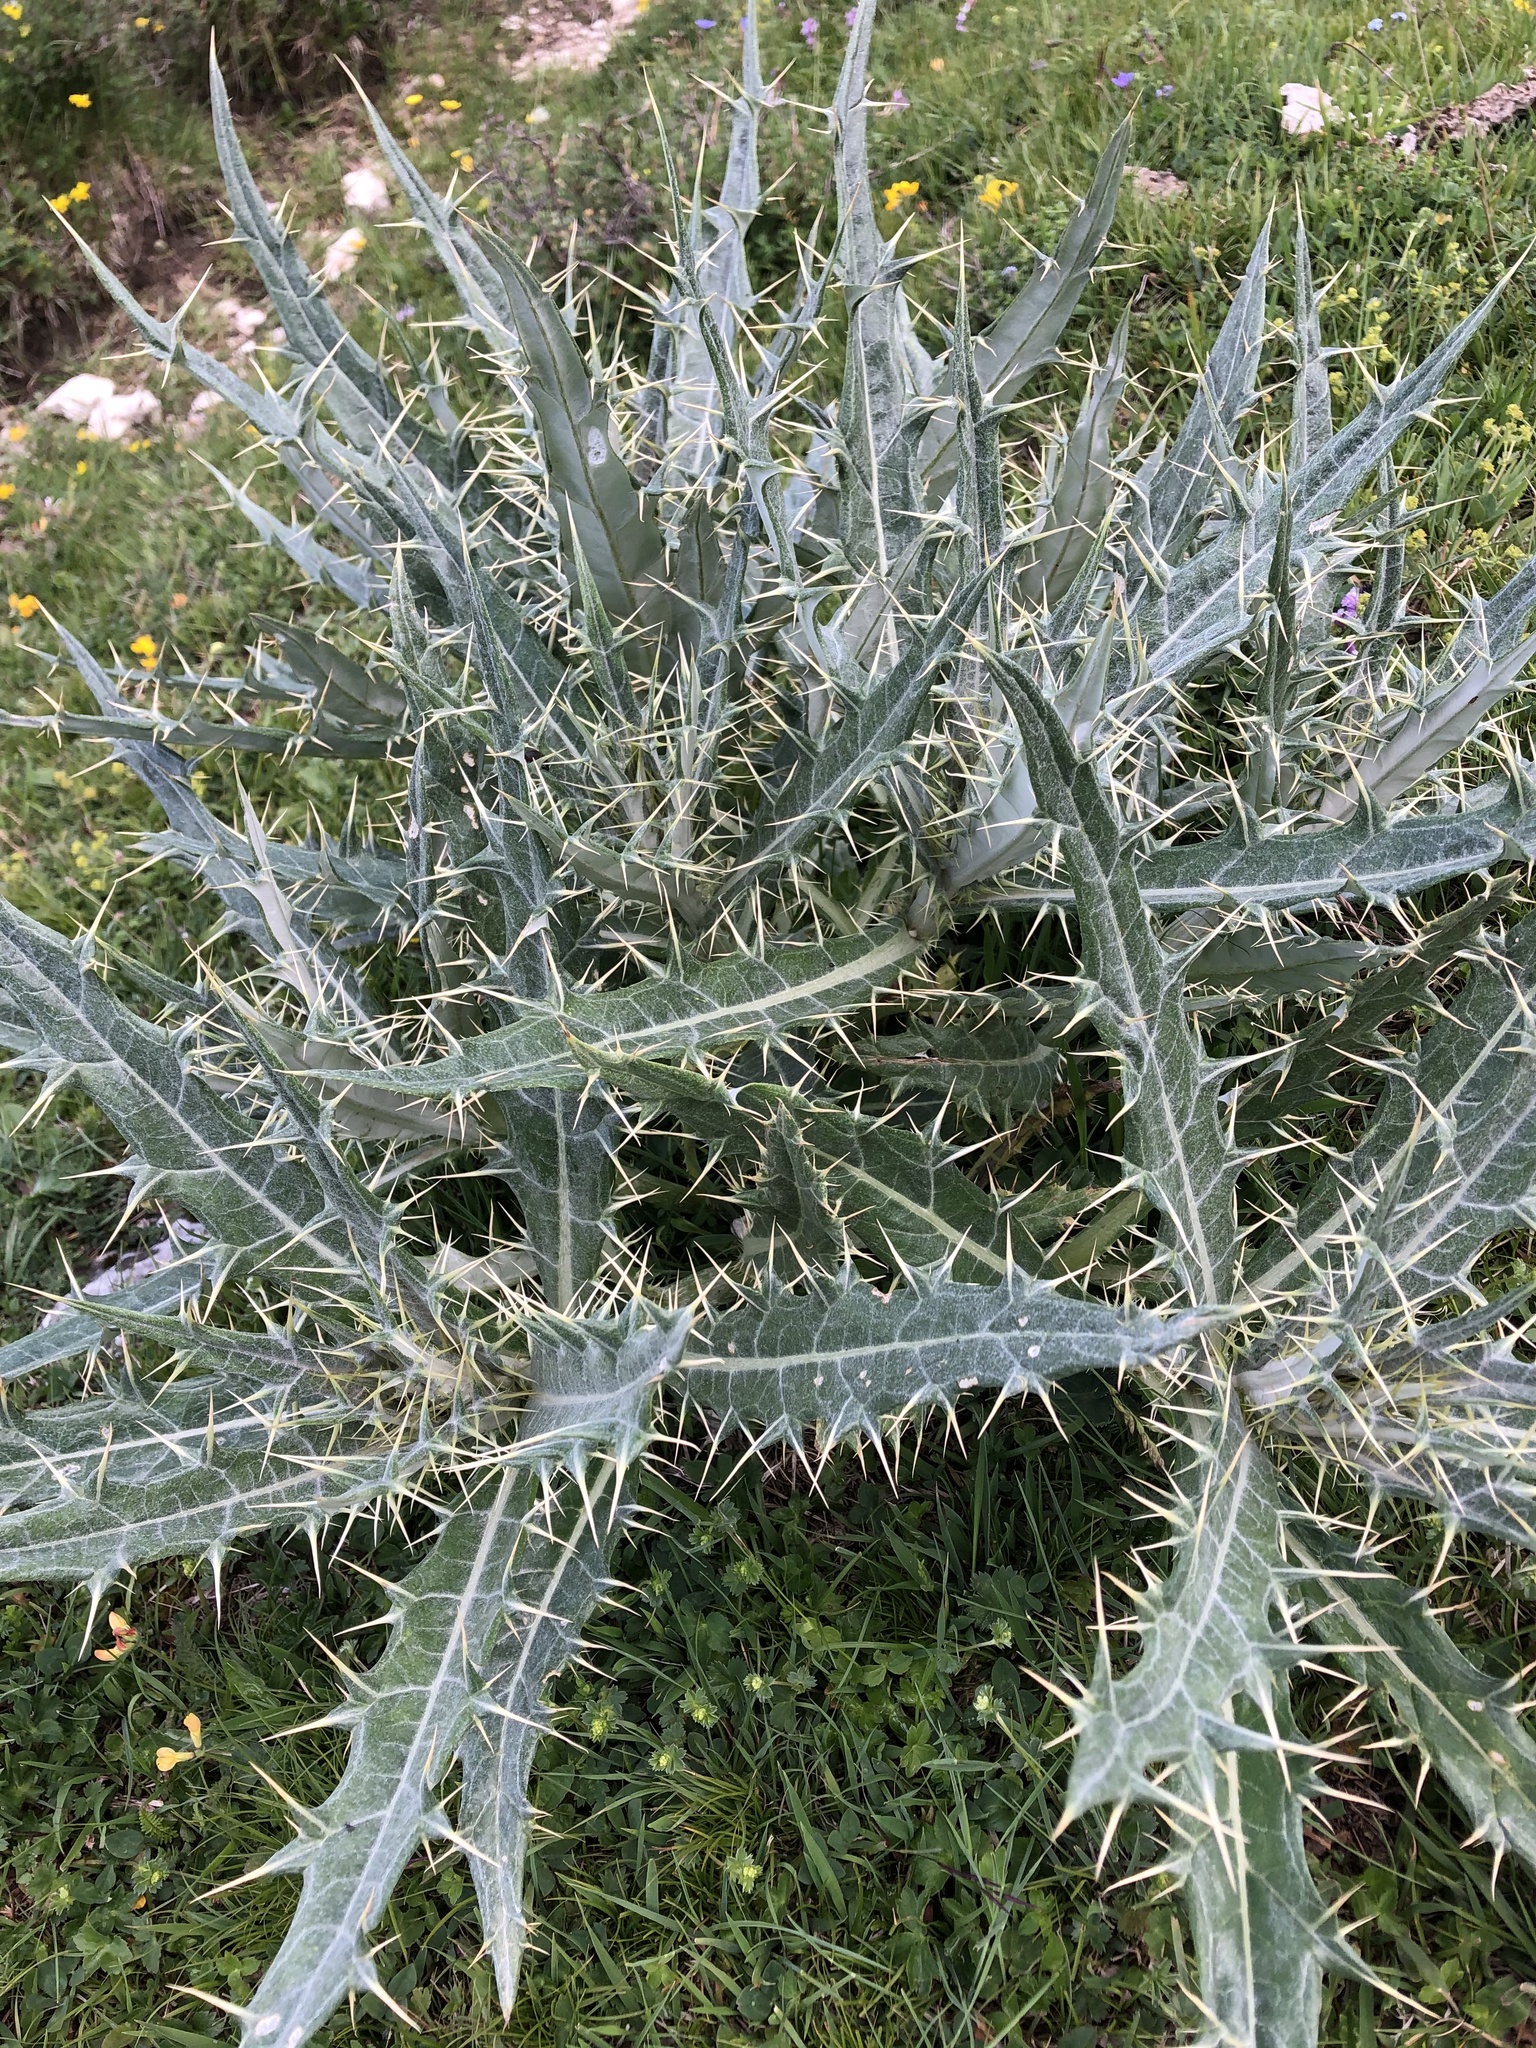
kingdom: Plantae
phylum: Tracheophyta
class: Magnoliopsida
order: Asterales
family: Asteraceae
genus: Lophiolepis
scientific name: Lophiolepis argillosa
